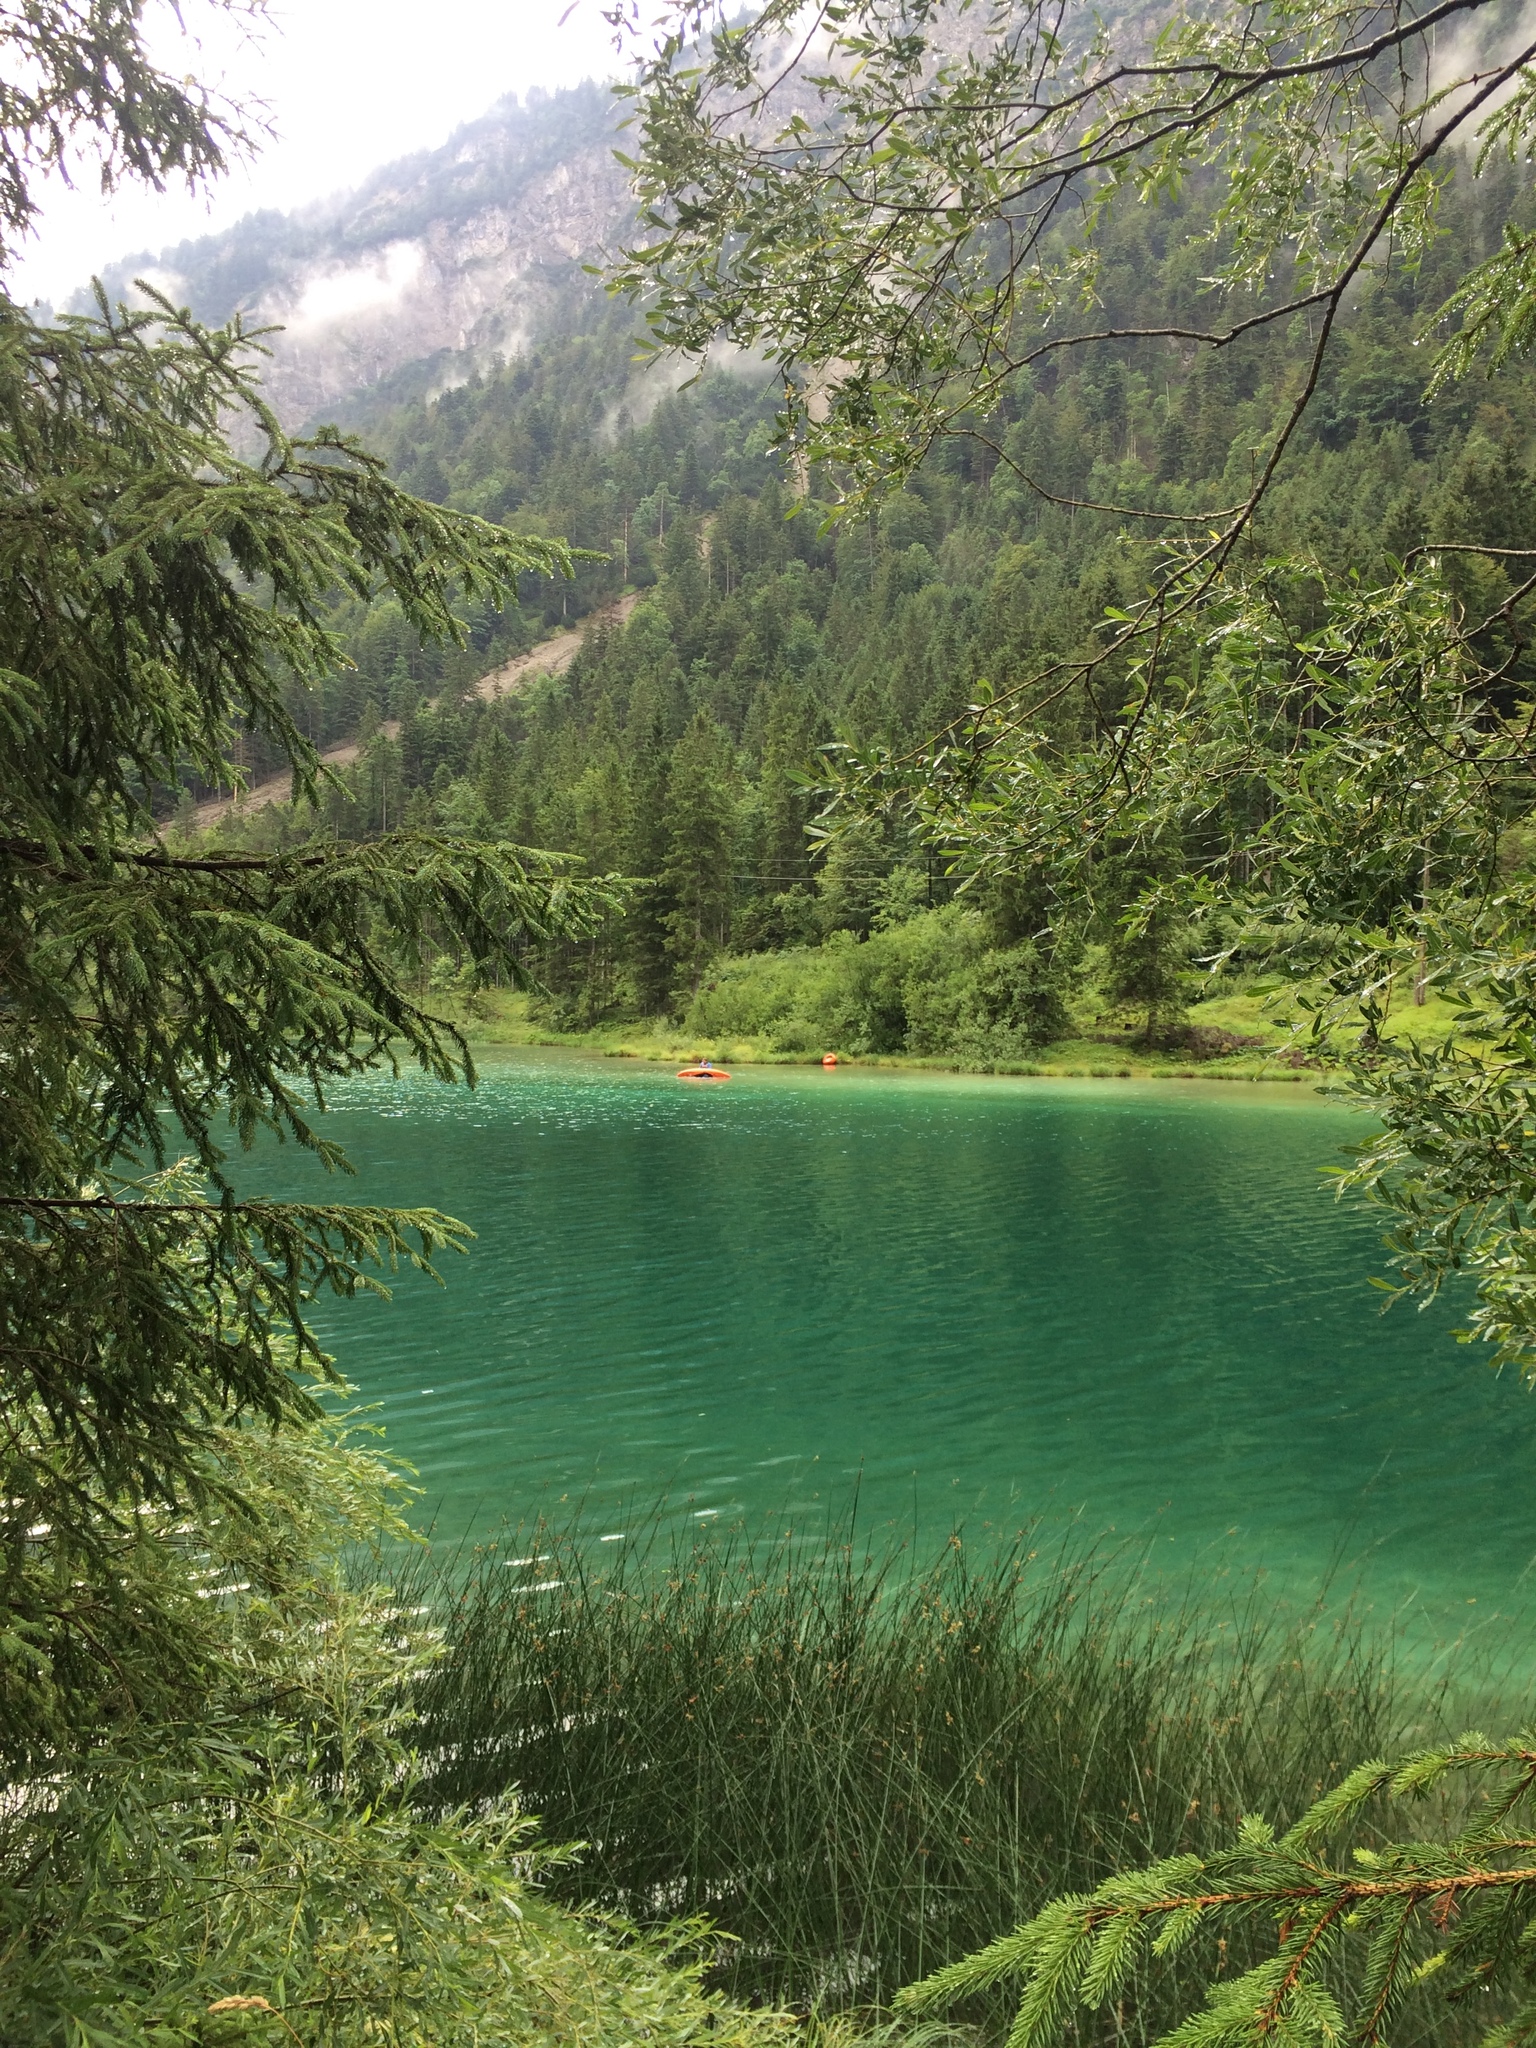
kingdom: Plantae
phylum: Tracheophyta
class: Pinopsida
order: Pinales
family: Pinaceae
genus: Picea
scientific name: Picea abies
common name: Norway spruce
